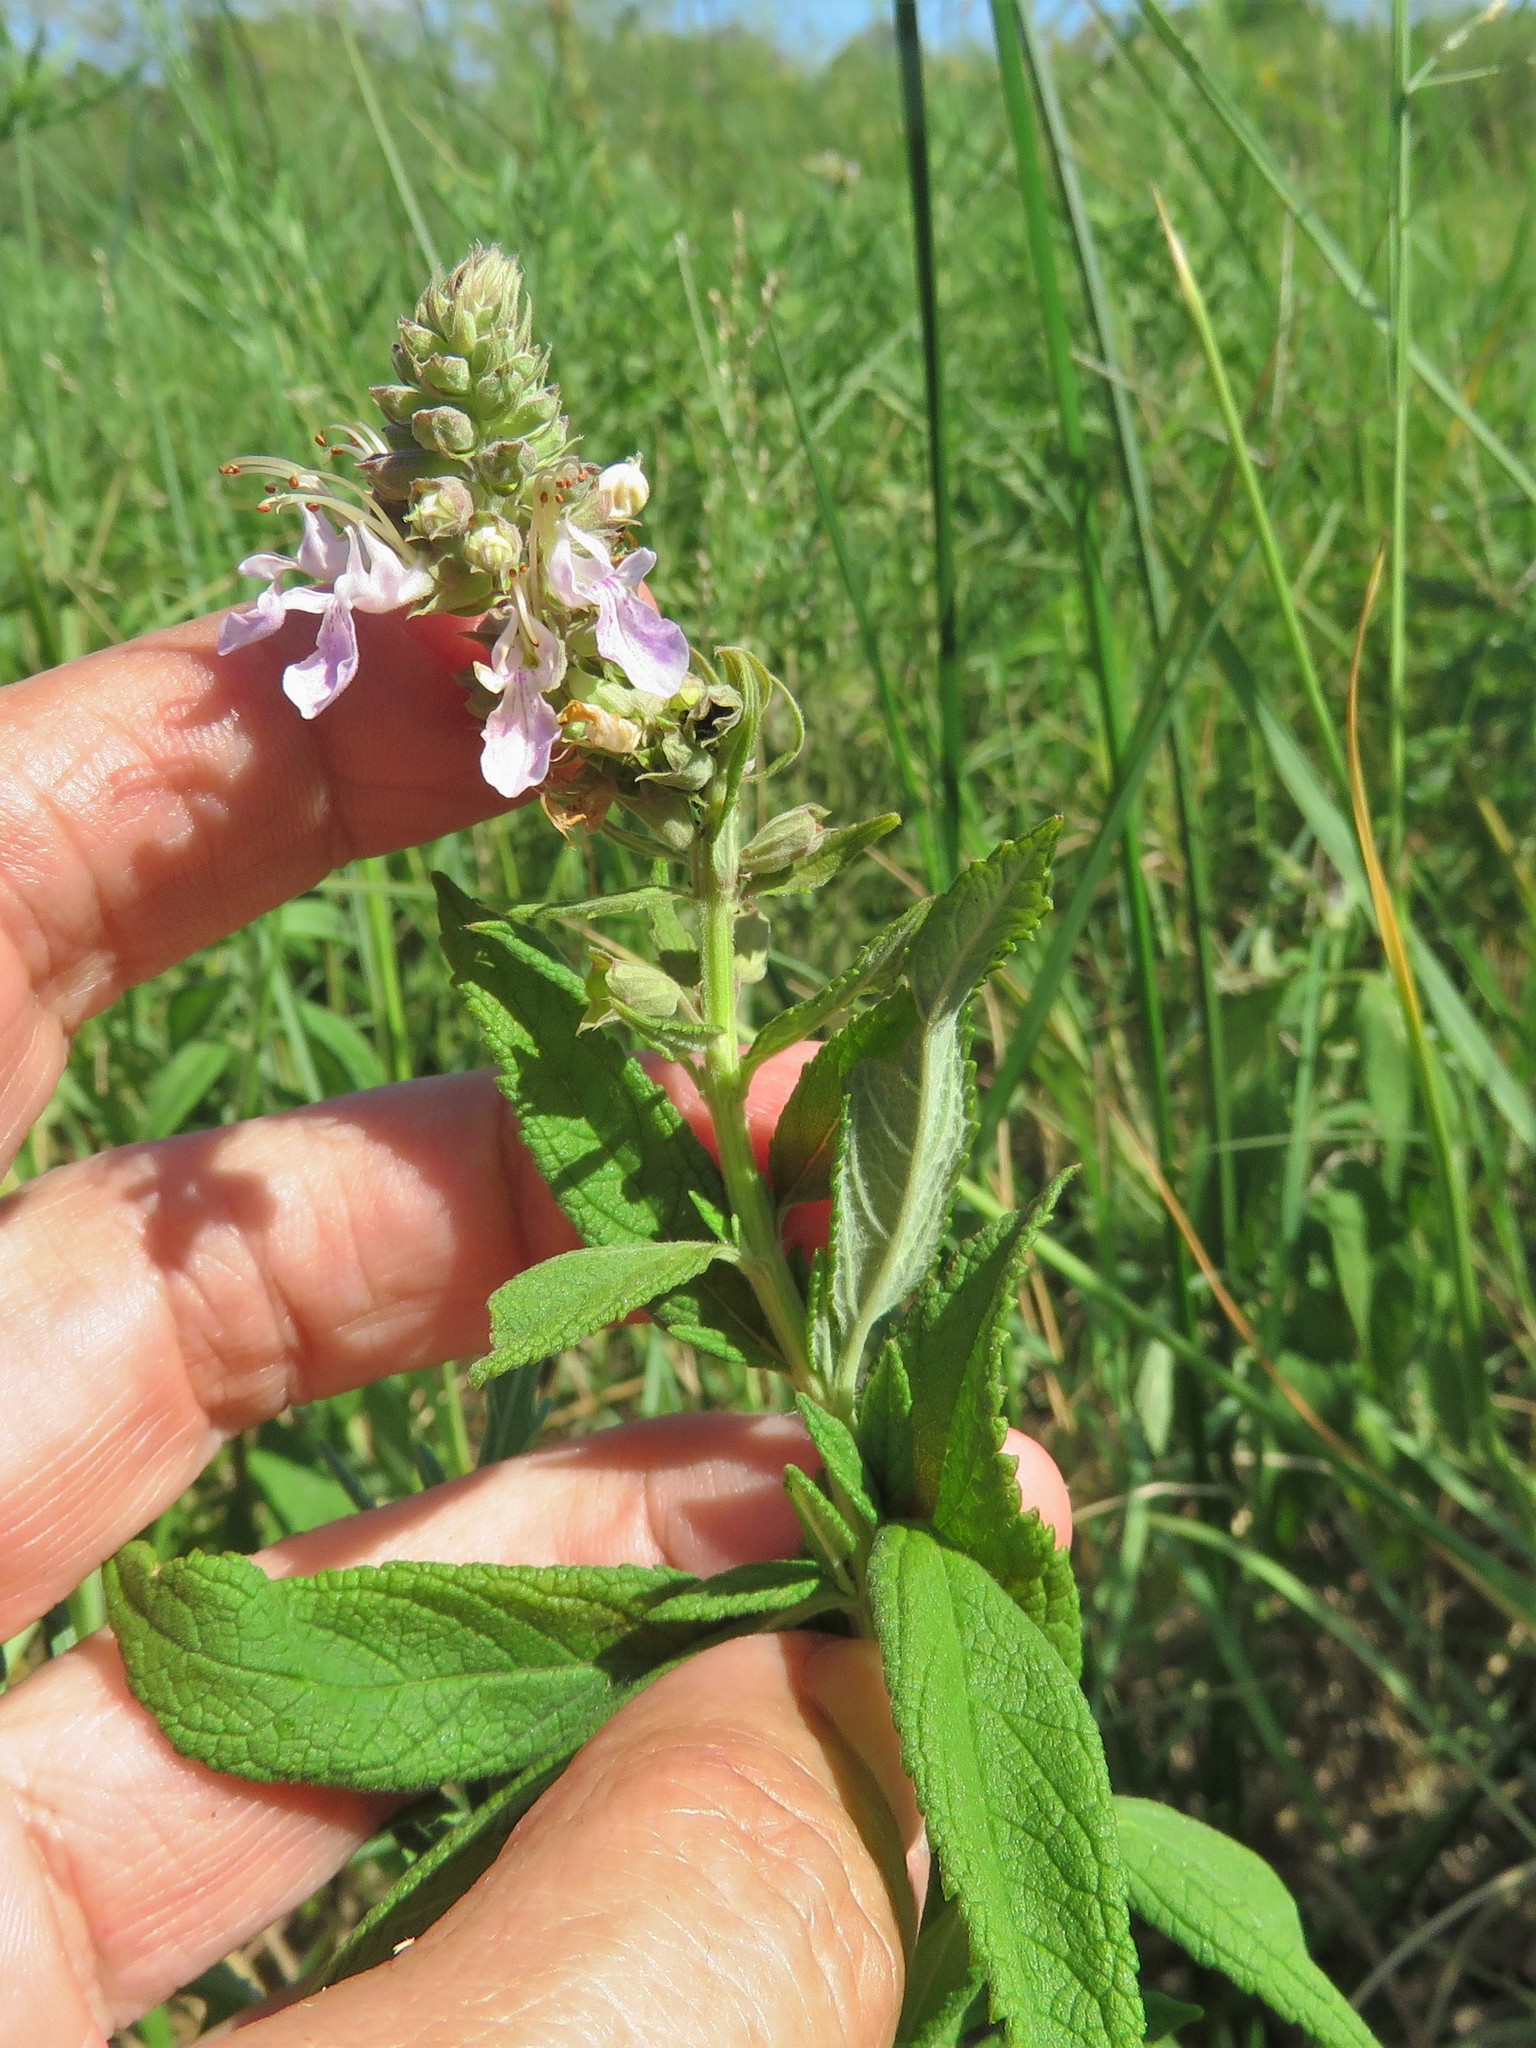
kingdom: Plantae
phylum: Tracheophyta
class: Magnoliopsida
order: Lamiales
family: Lamiaceae
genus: Teucrium
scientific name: Teucrium canadense
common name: American germander
